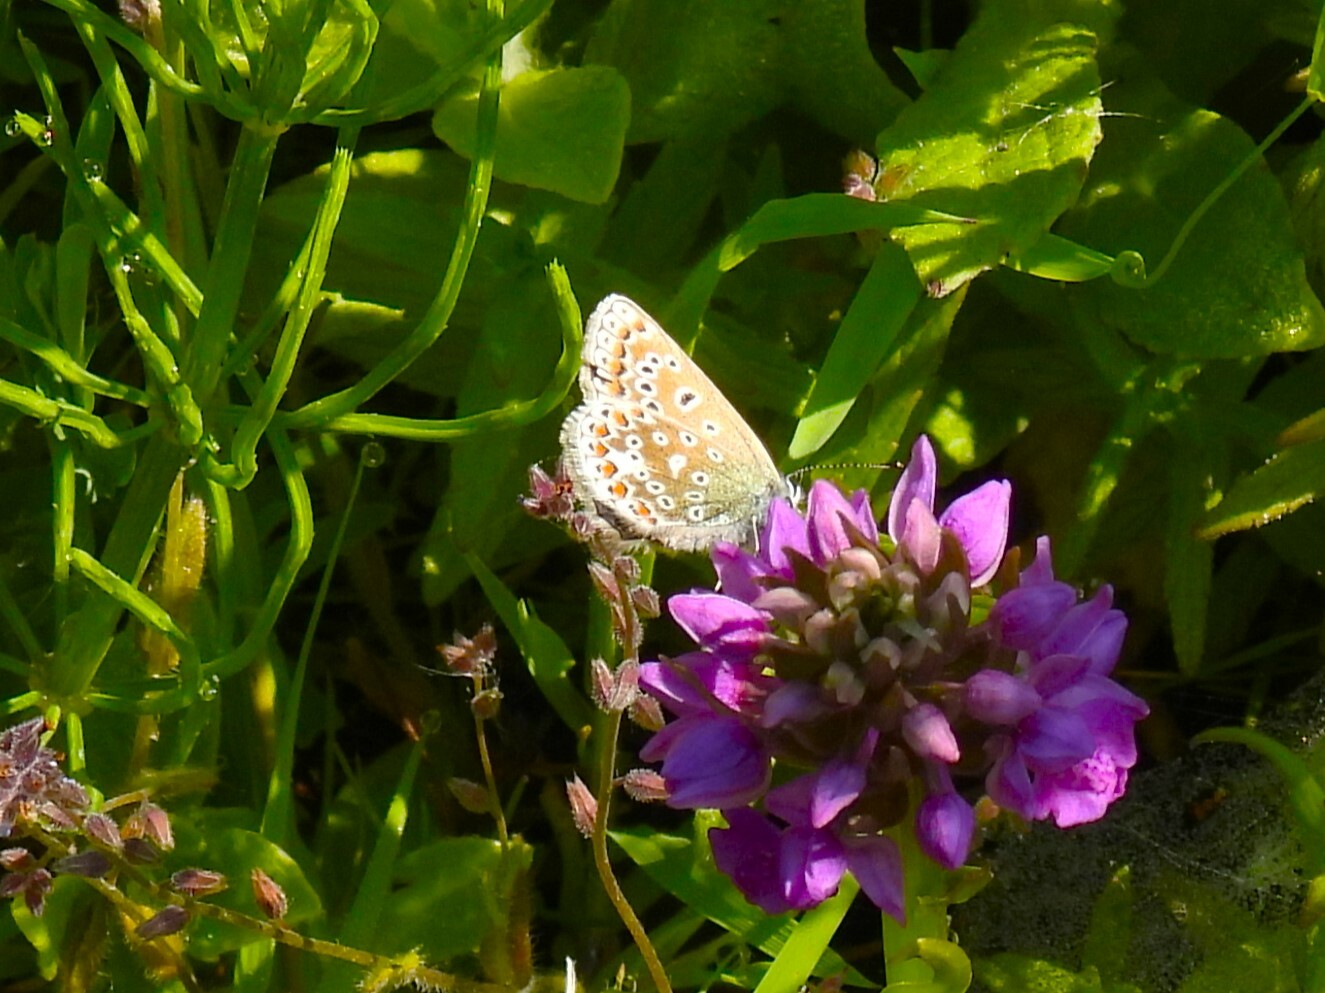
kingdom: Animalia
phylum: Arthropoda
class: Insecta
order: Lepidoptera
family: Lycaenidae
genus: Polyommatus
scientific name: Polyommatus icarus
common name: Common blue
